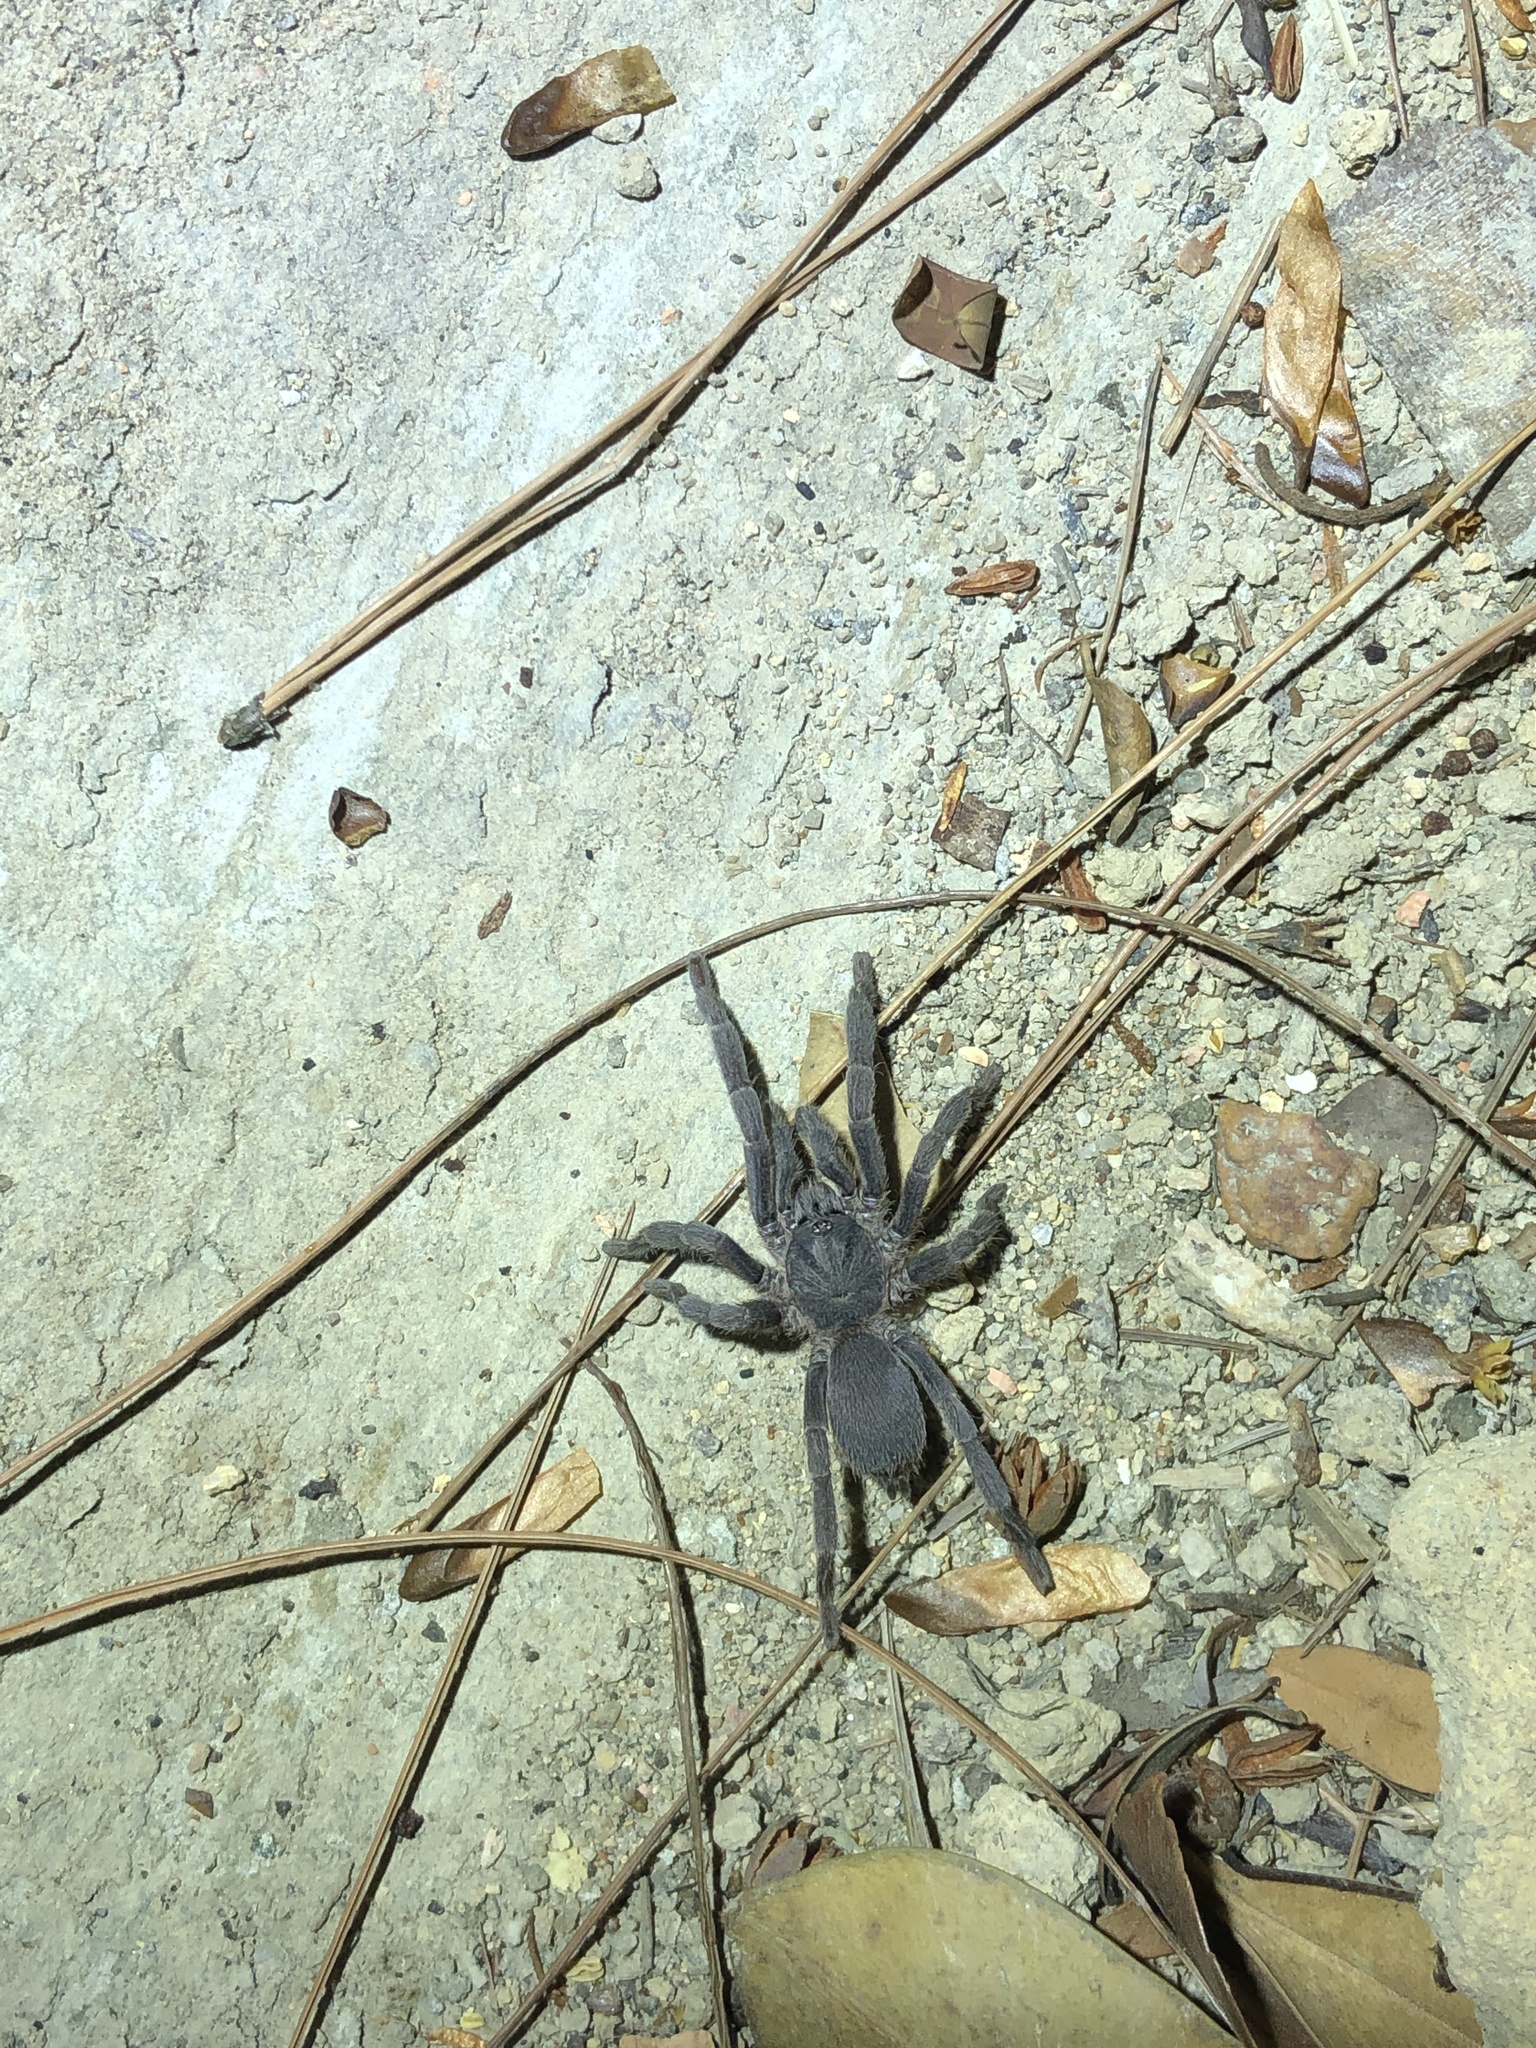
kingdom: Animalia
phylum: Arthropoda
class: Arachnida
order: Araneae
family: Theraphosidae
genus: Phlogiellus
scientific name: Phlogiellus
